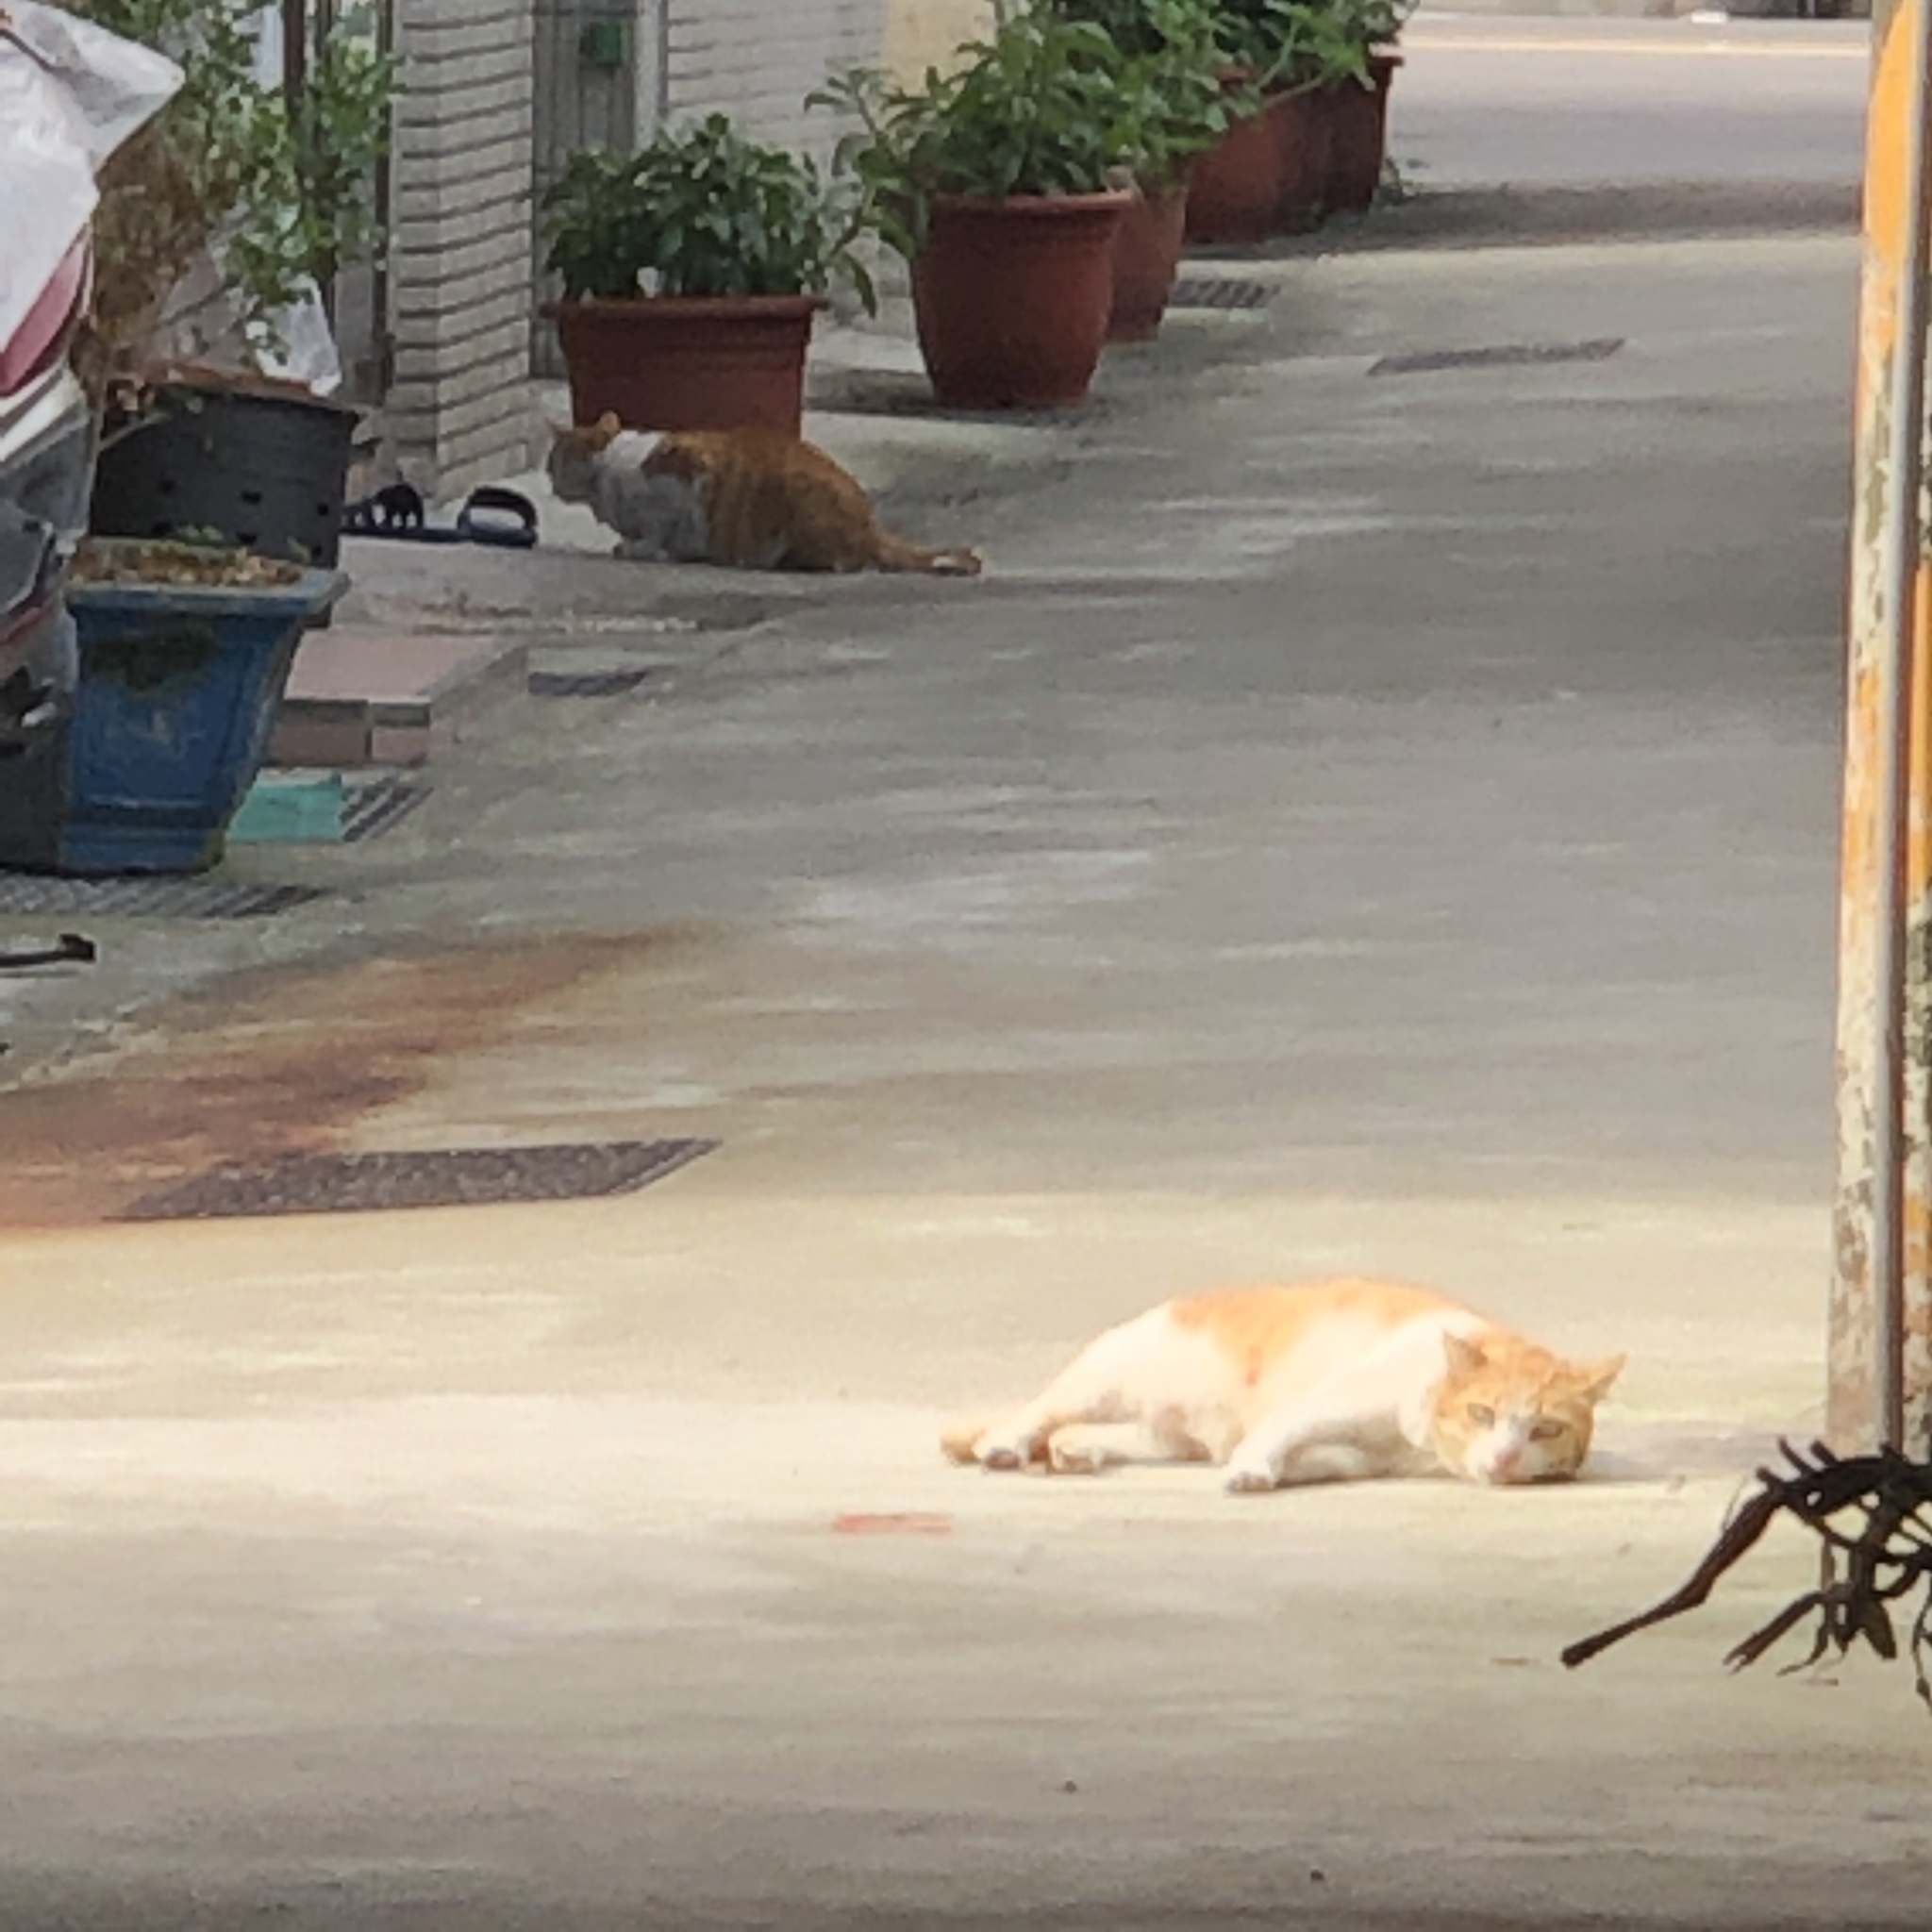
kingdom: Animalia
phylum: Chordata
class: Mammalia
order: Carnivora
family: Felidae
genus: Felis
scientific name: Felis catus
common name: Domestic cat
